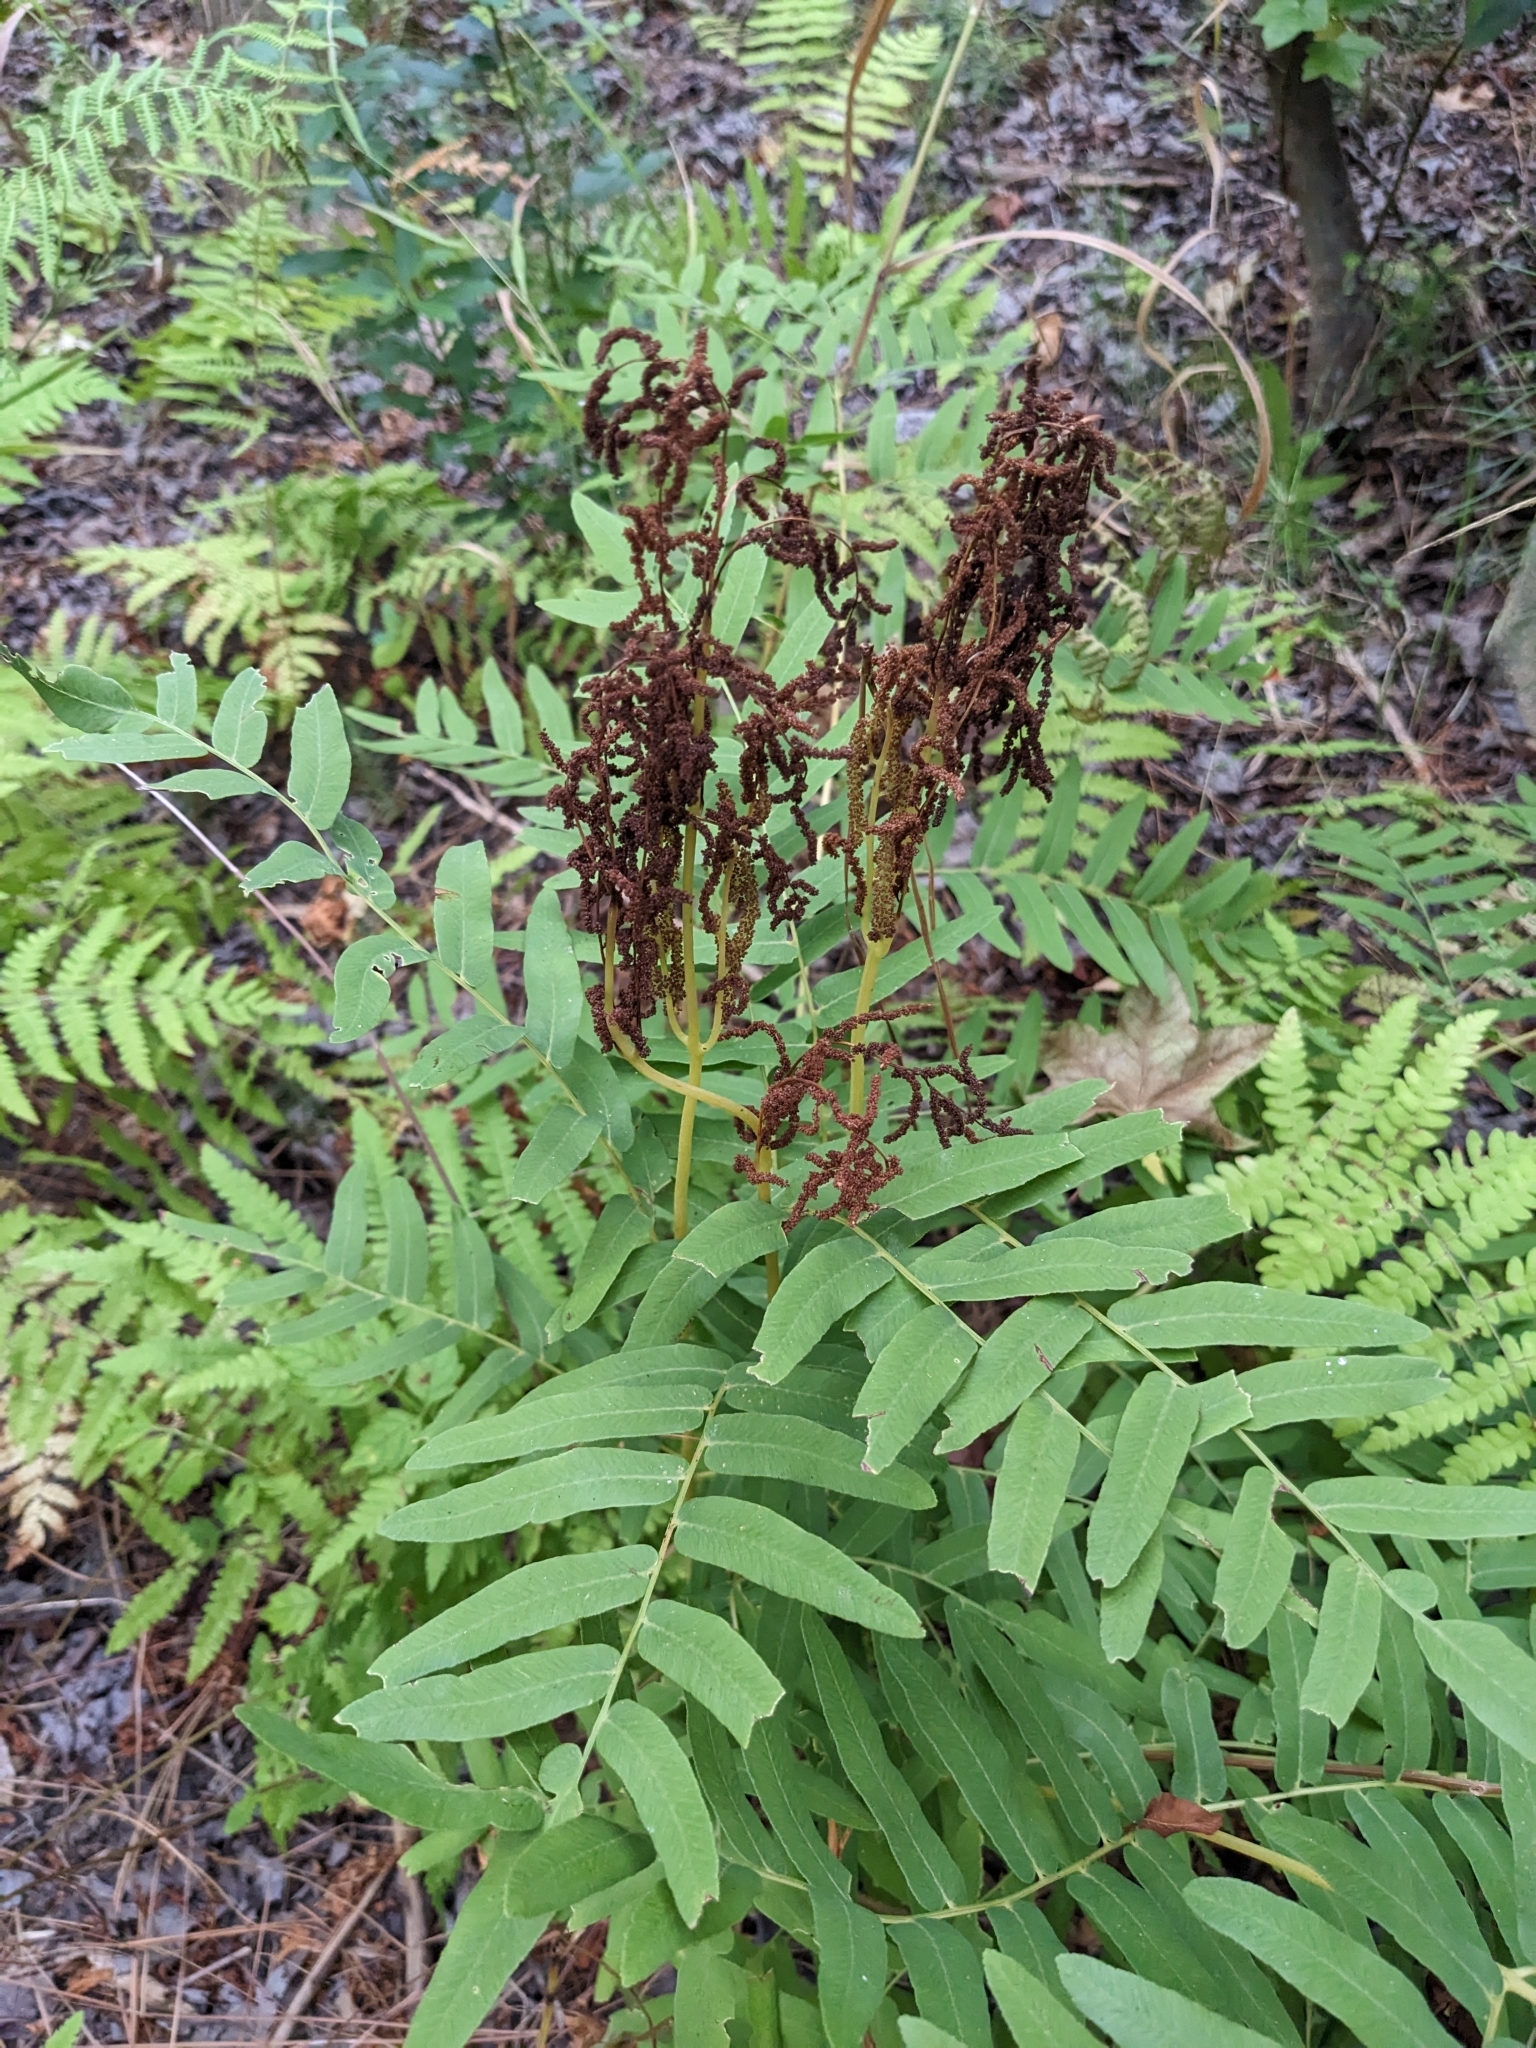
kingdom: Plantae
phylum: Tracheophyta
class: Polypodiopsida
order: Osmundales
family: Osmundaceae
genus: Osmunda
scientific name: Osmunda spectabilis
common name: American royal fern
